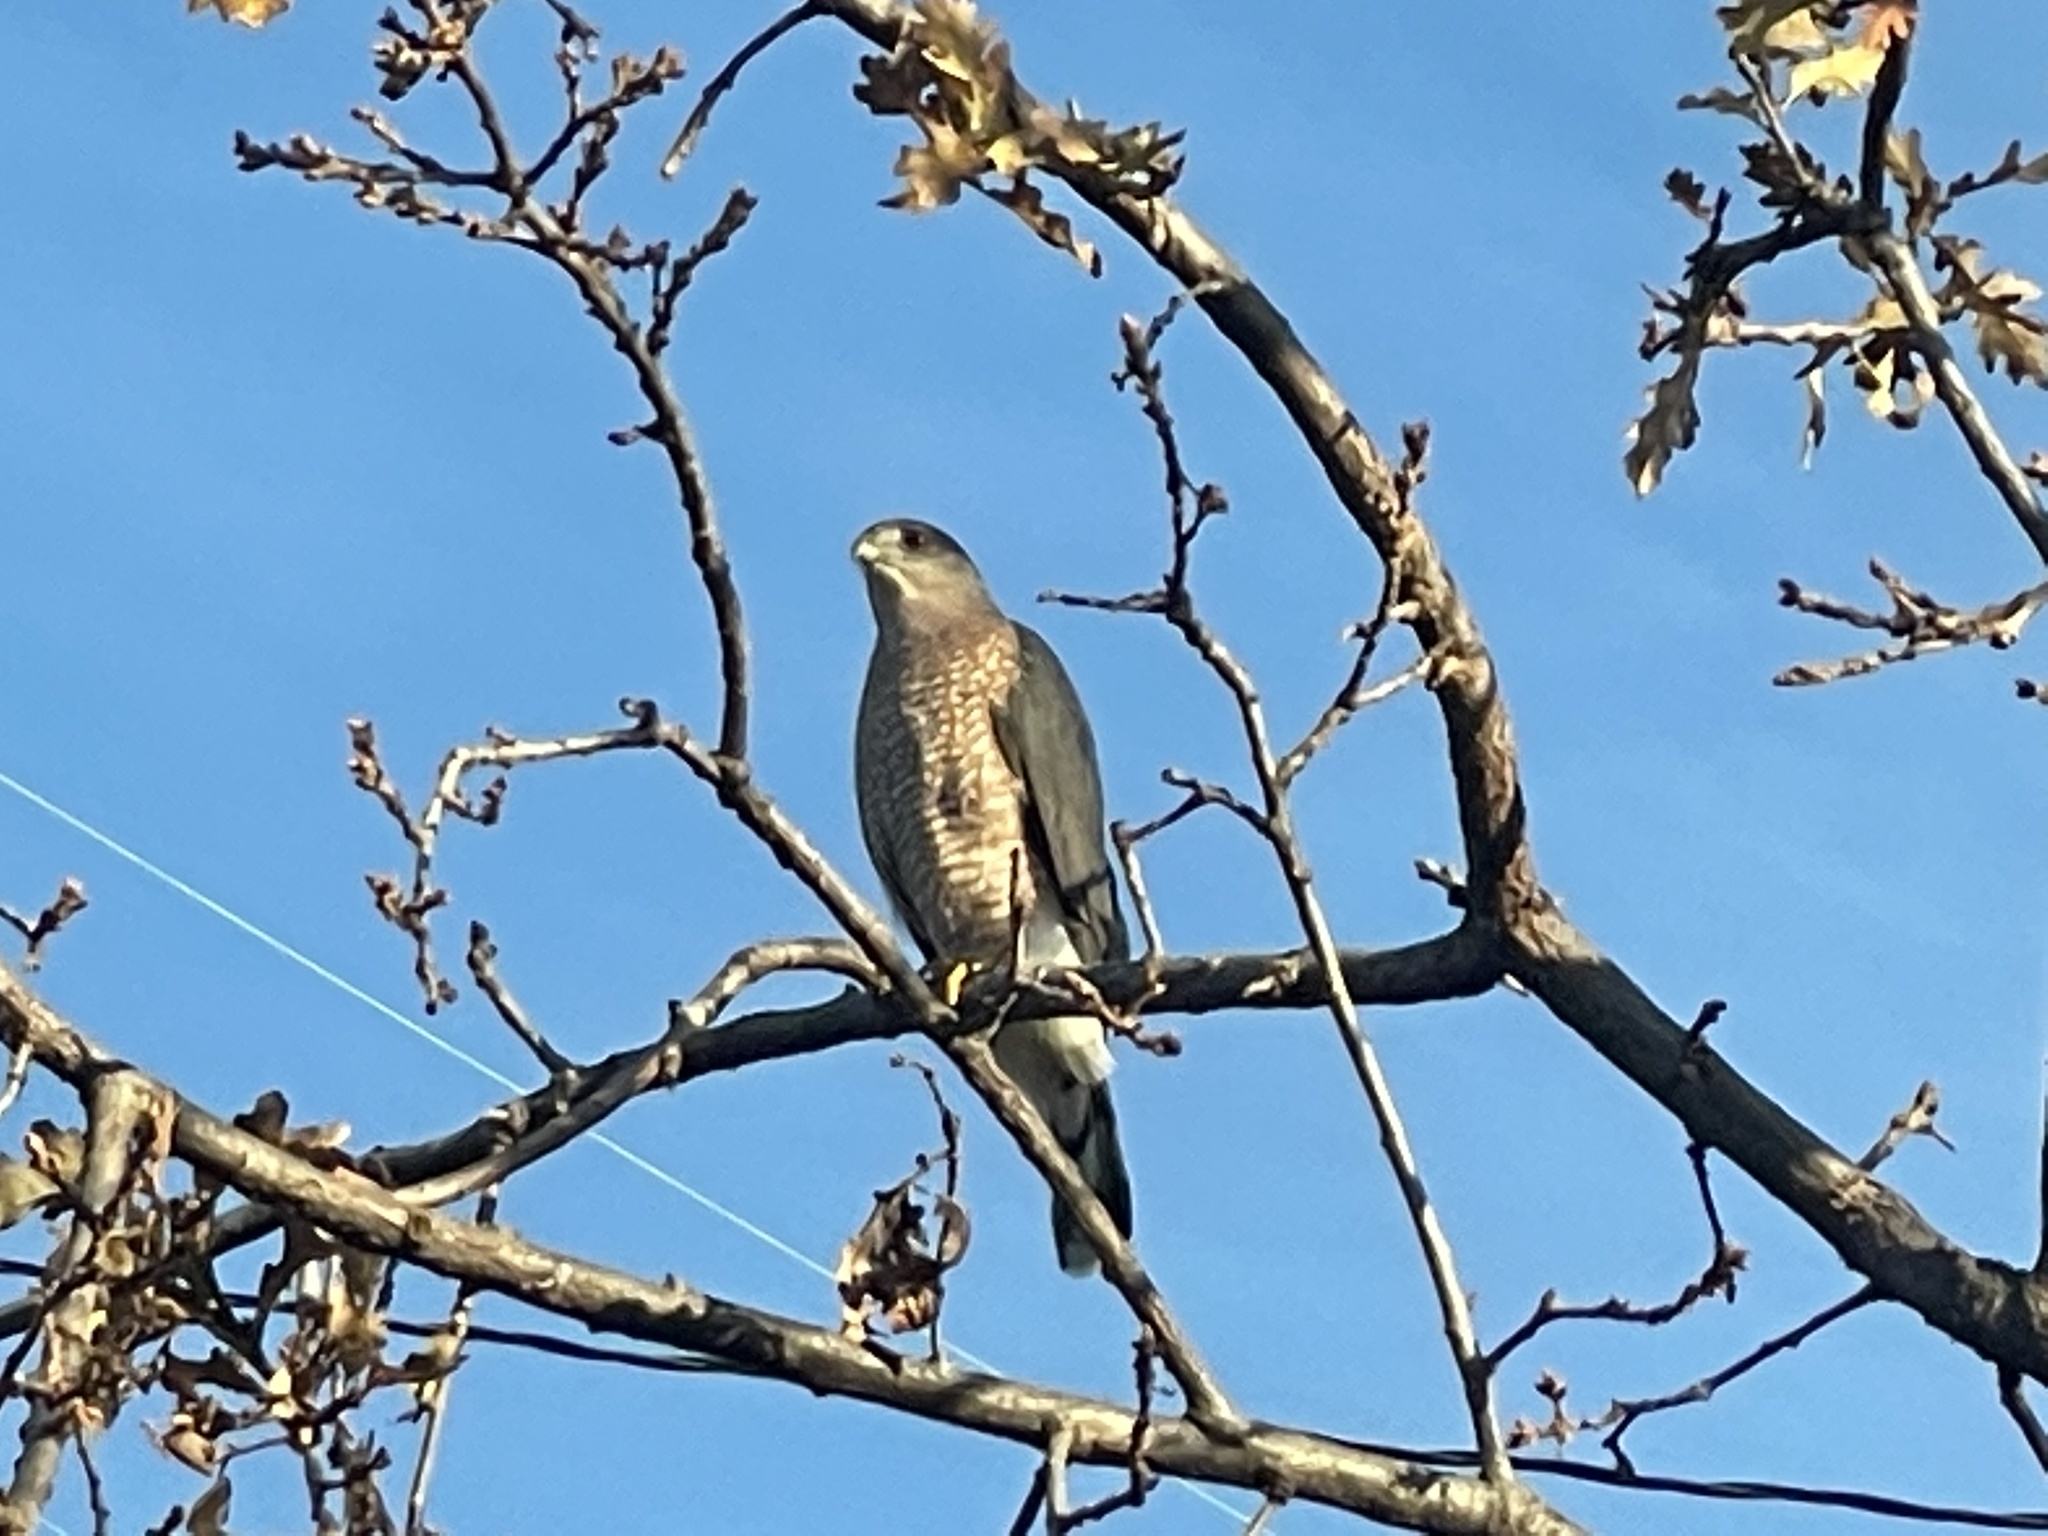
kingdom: Animalia
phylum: Chordata
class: Aves
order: Accipitriformes
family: Accipitridae
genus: Accipiter
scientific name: Accipiter cooperii
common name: Cooper's hawk
